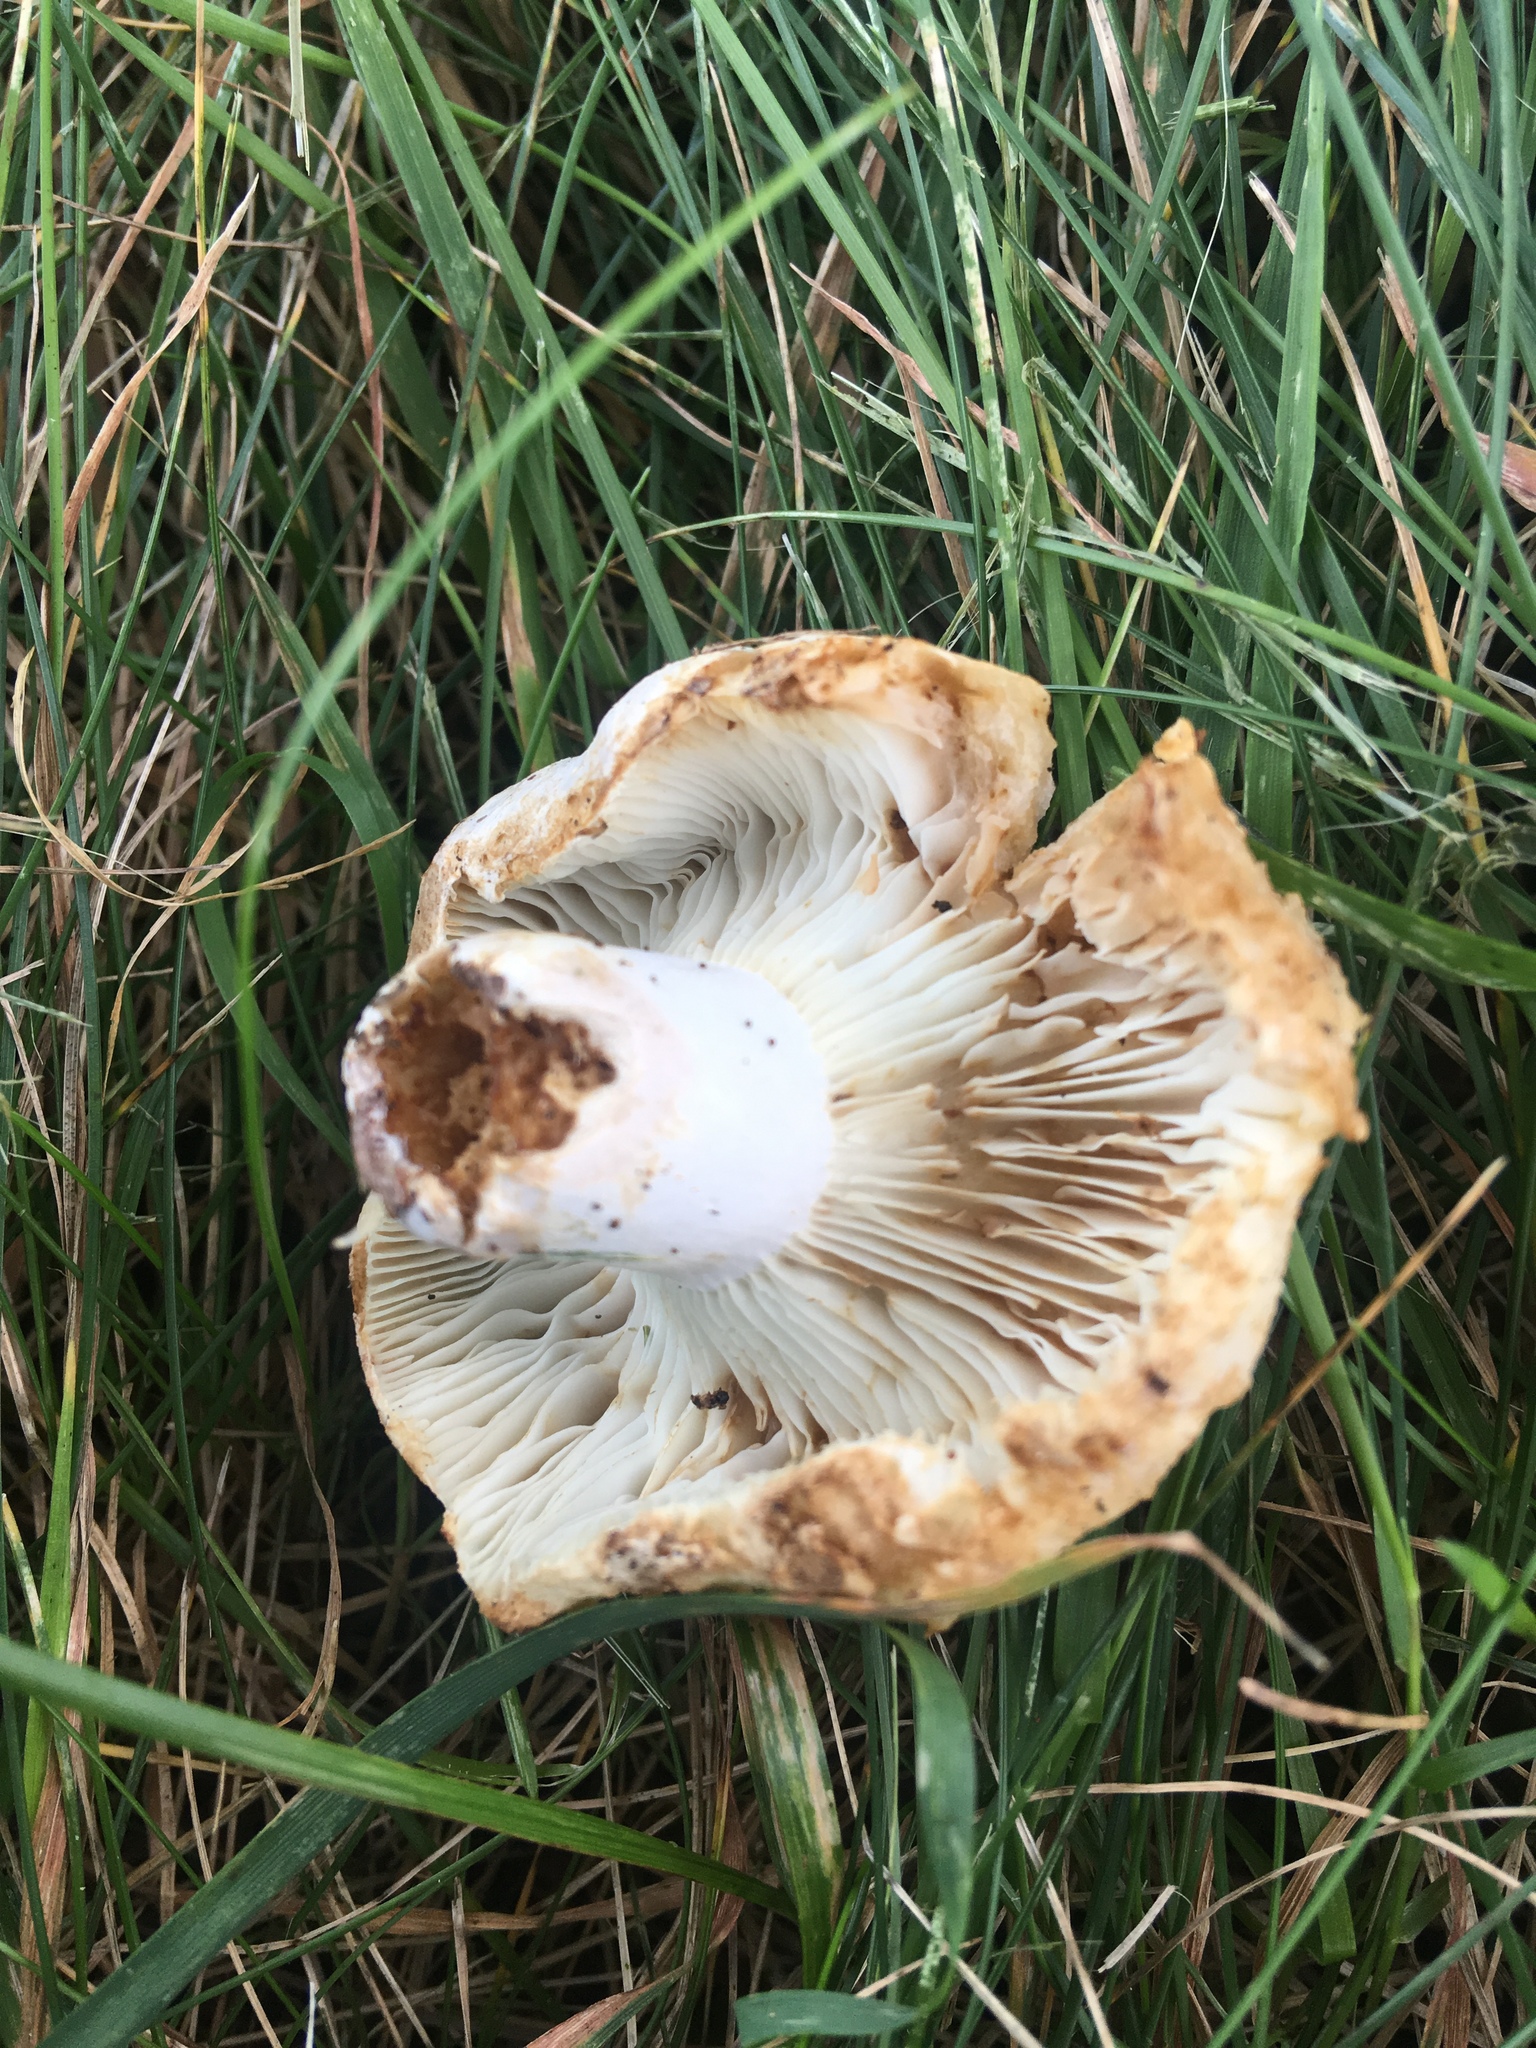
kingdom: Fungi
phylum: Basidiomycota
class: Agaricomycetes
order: Russulales
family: Russulaceae
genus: Russula
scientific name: Russula compacta
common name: Fishbiscuit russula
